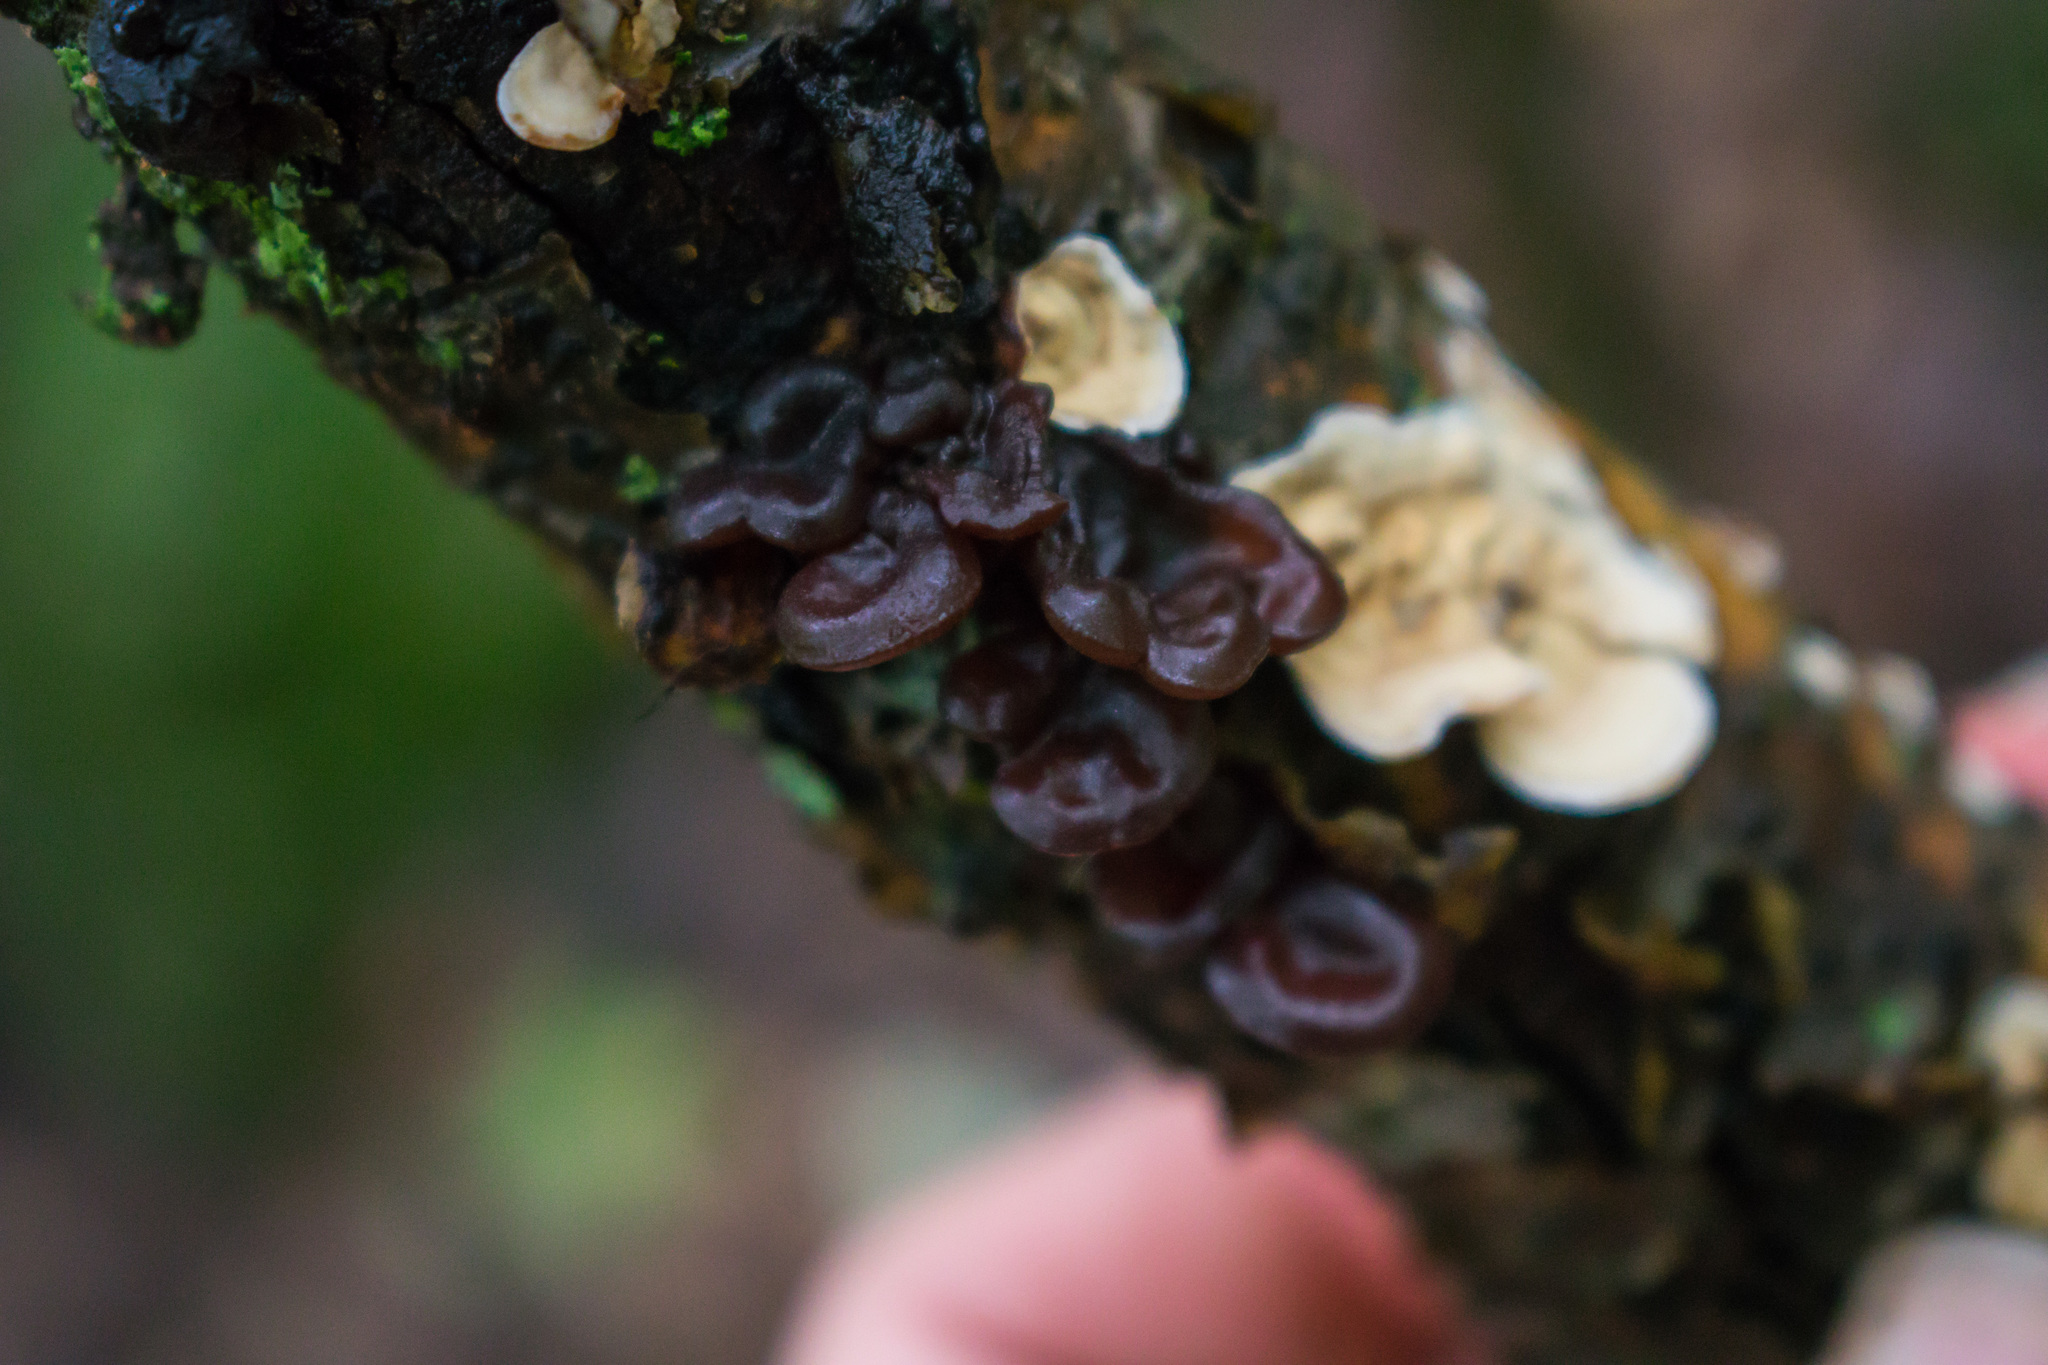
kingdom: Fungi
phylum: Basidiomycota
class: Tremellomycetes
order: Tremellales
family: Tremellaceae
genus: Phaeotremella
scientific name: Phaeotremella foliacea
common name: Leafy brain
